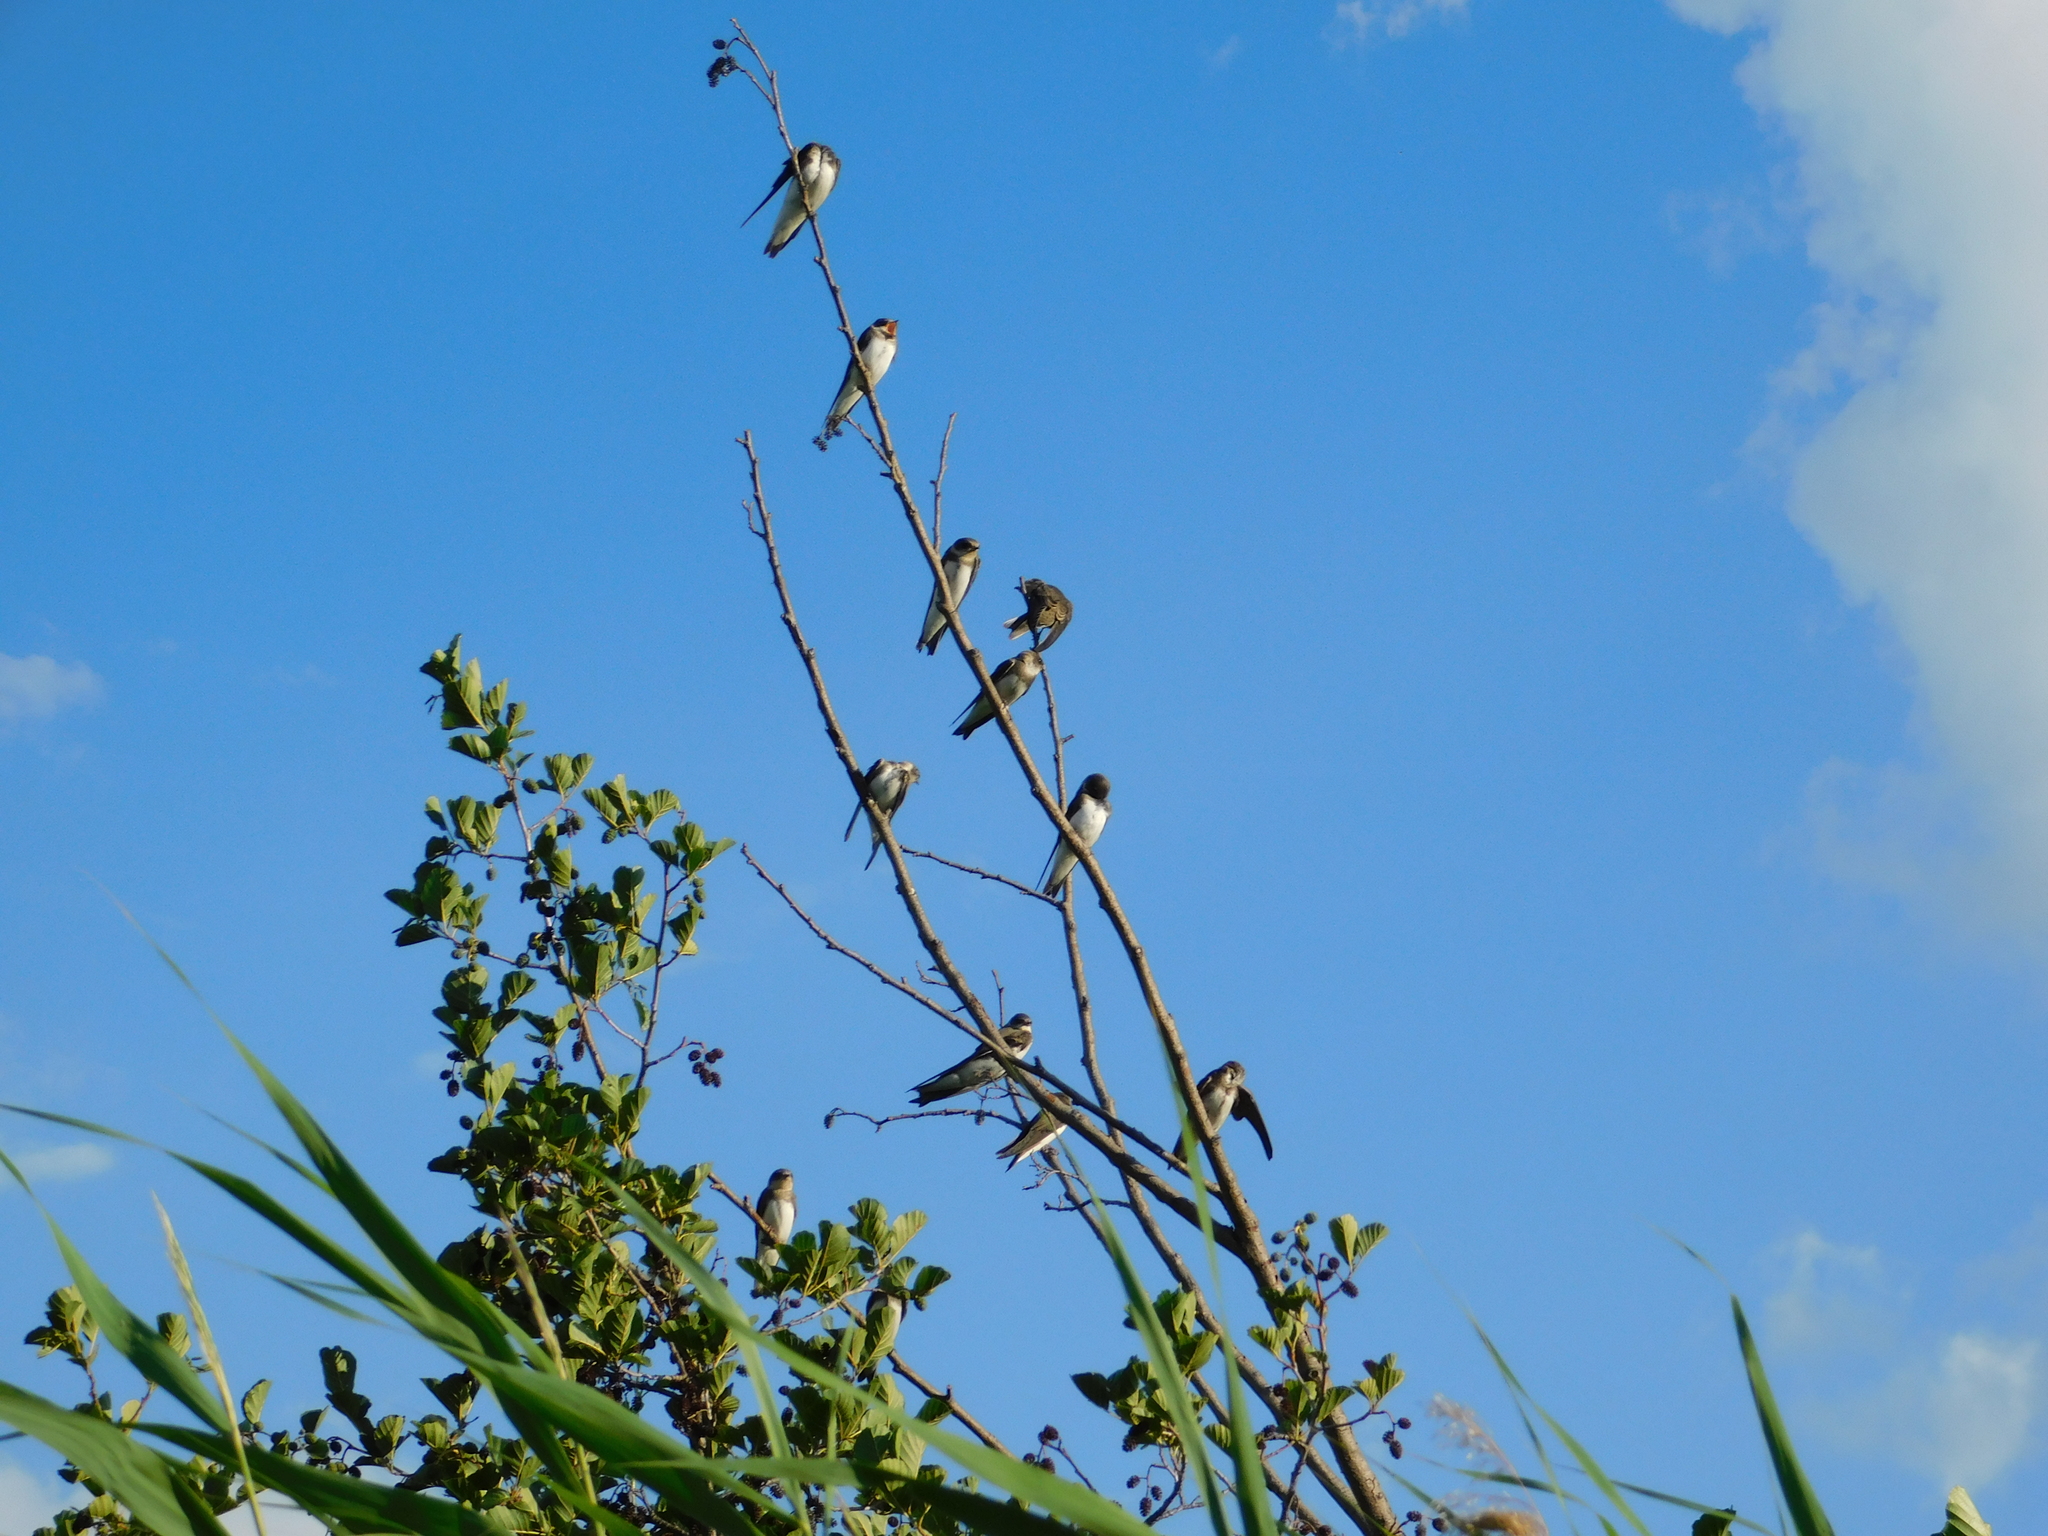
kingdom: Animalia
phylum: Chordata
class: Aves
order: Passeriformes
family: Hirundinidae
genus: Riparia
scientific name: Riparia riparia
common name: Sand martin
